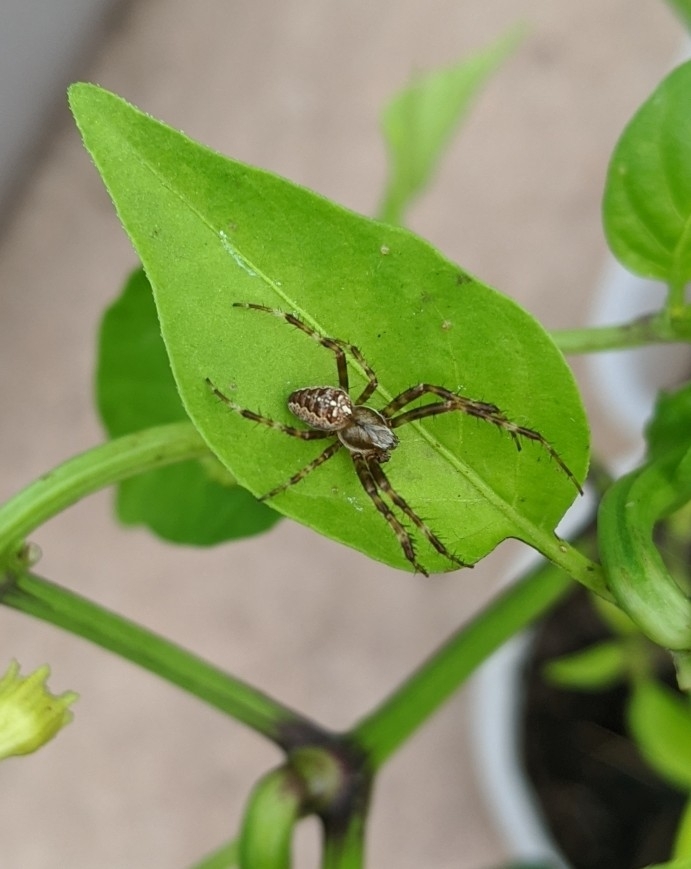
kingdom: Animalia
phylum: Arthropoda
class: Arachnida
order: Araneae
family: Araneidae
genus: Araneus
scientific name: Araneus diadematus
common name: Cross orbweaver
